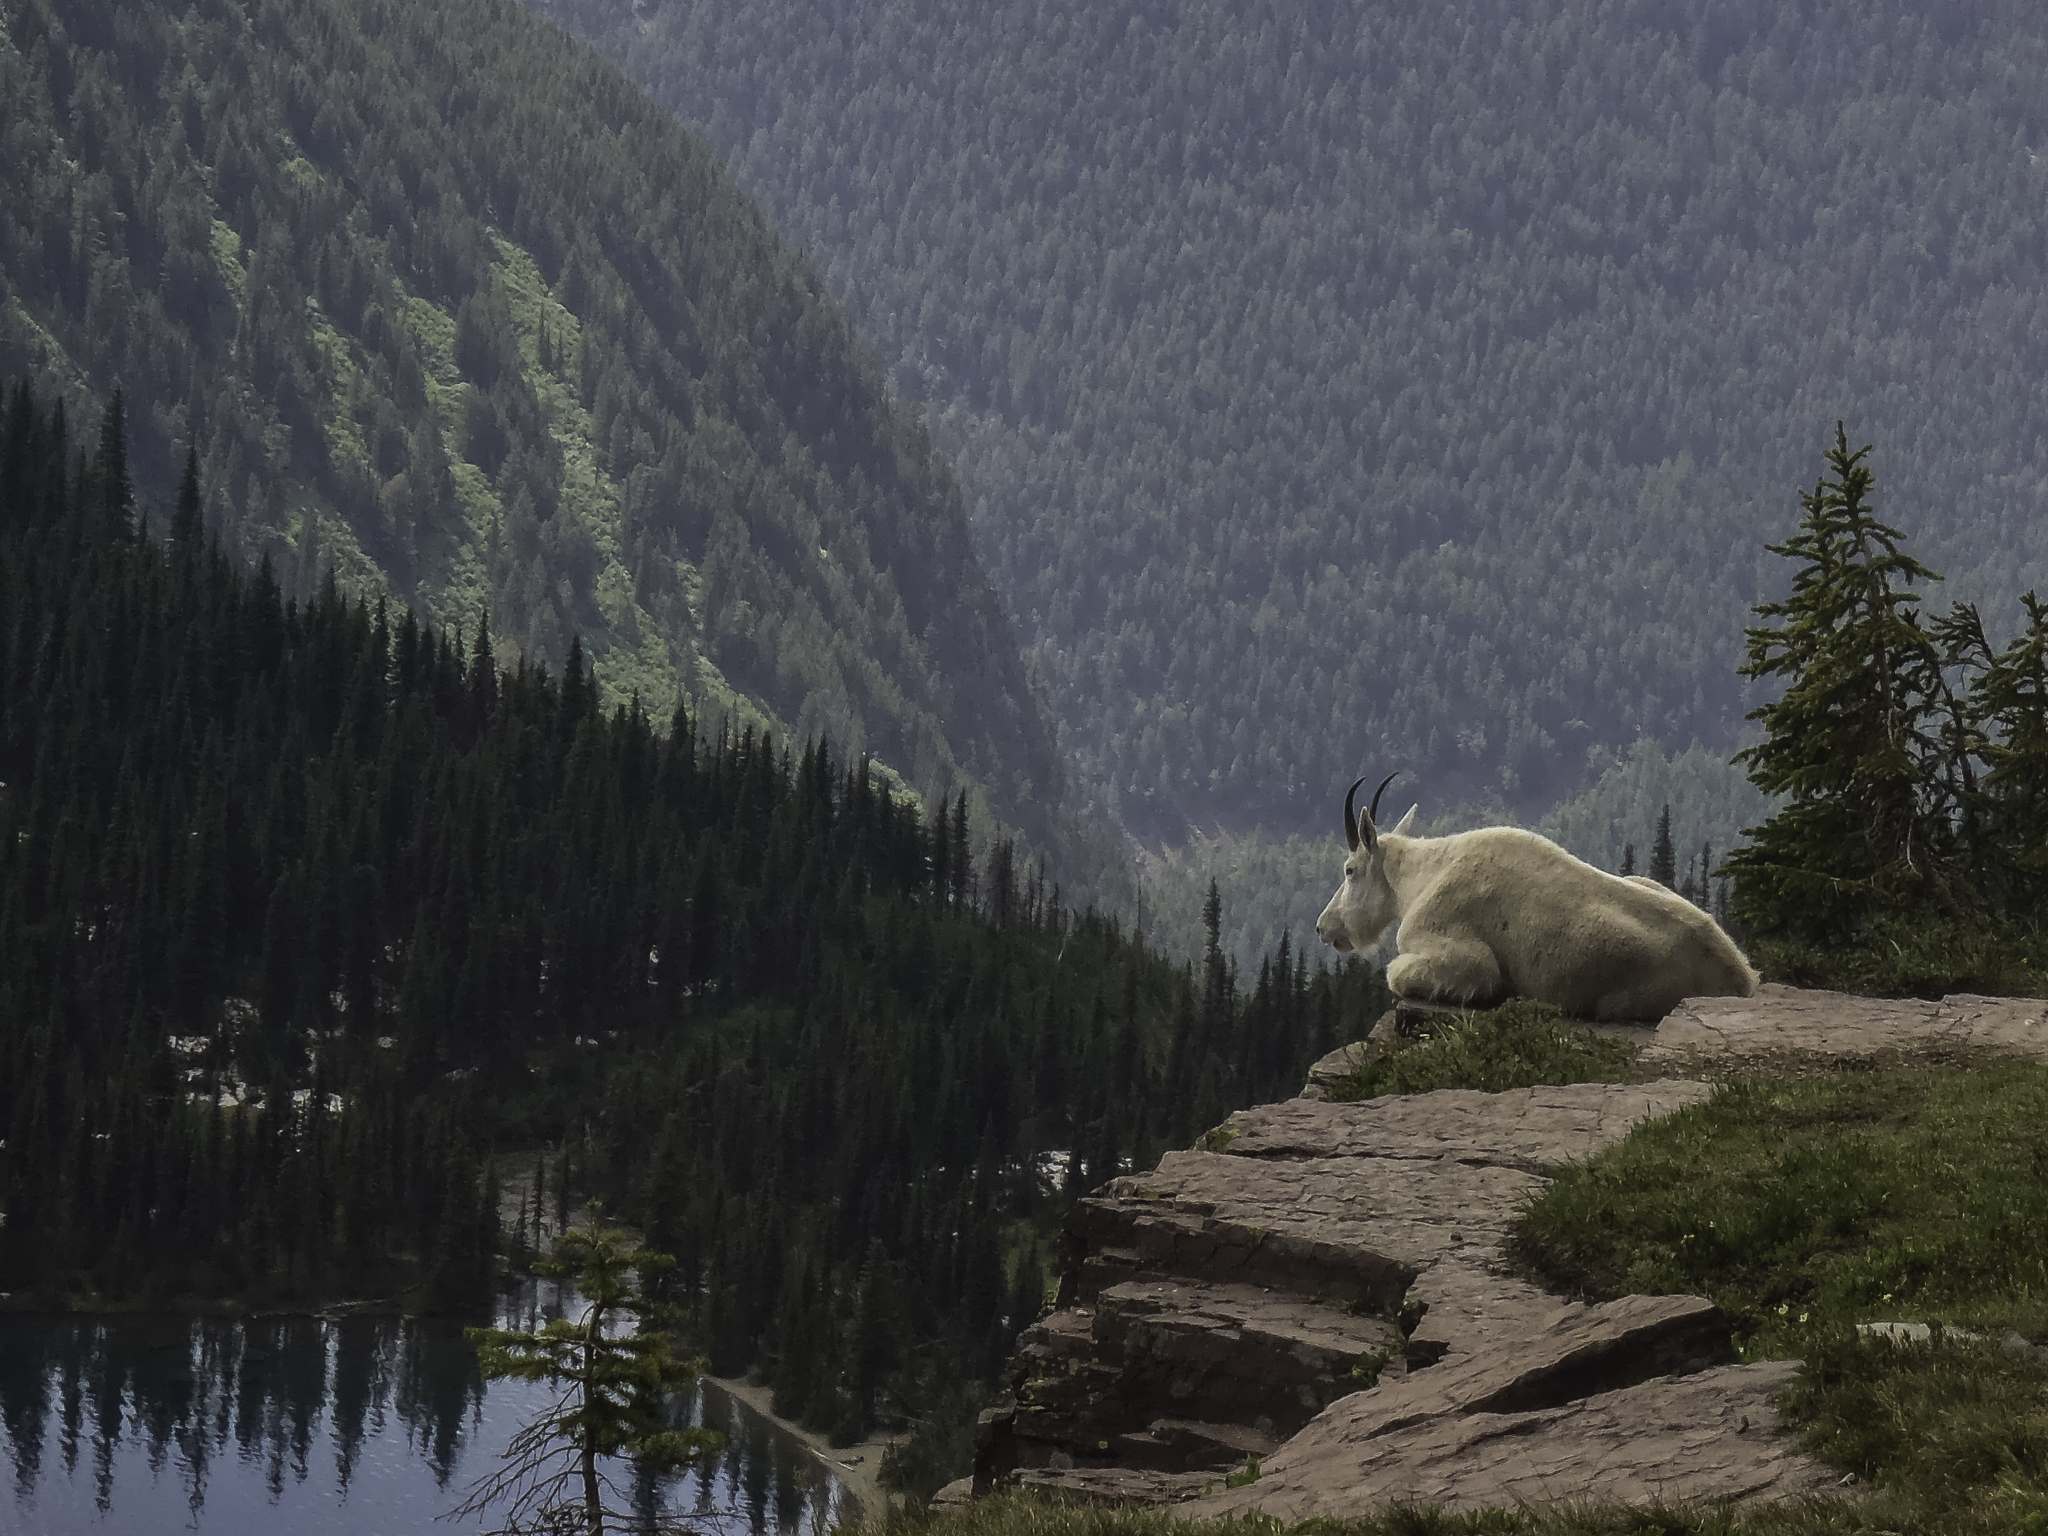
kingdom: Animalia
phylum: Chordata
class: Mammalia
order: Artiodactyla
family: Bovidae
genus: Oreamnos
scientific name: Oreamnos americanus
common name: Mountain goat
